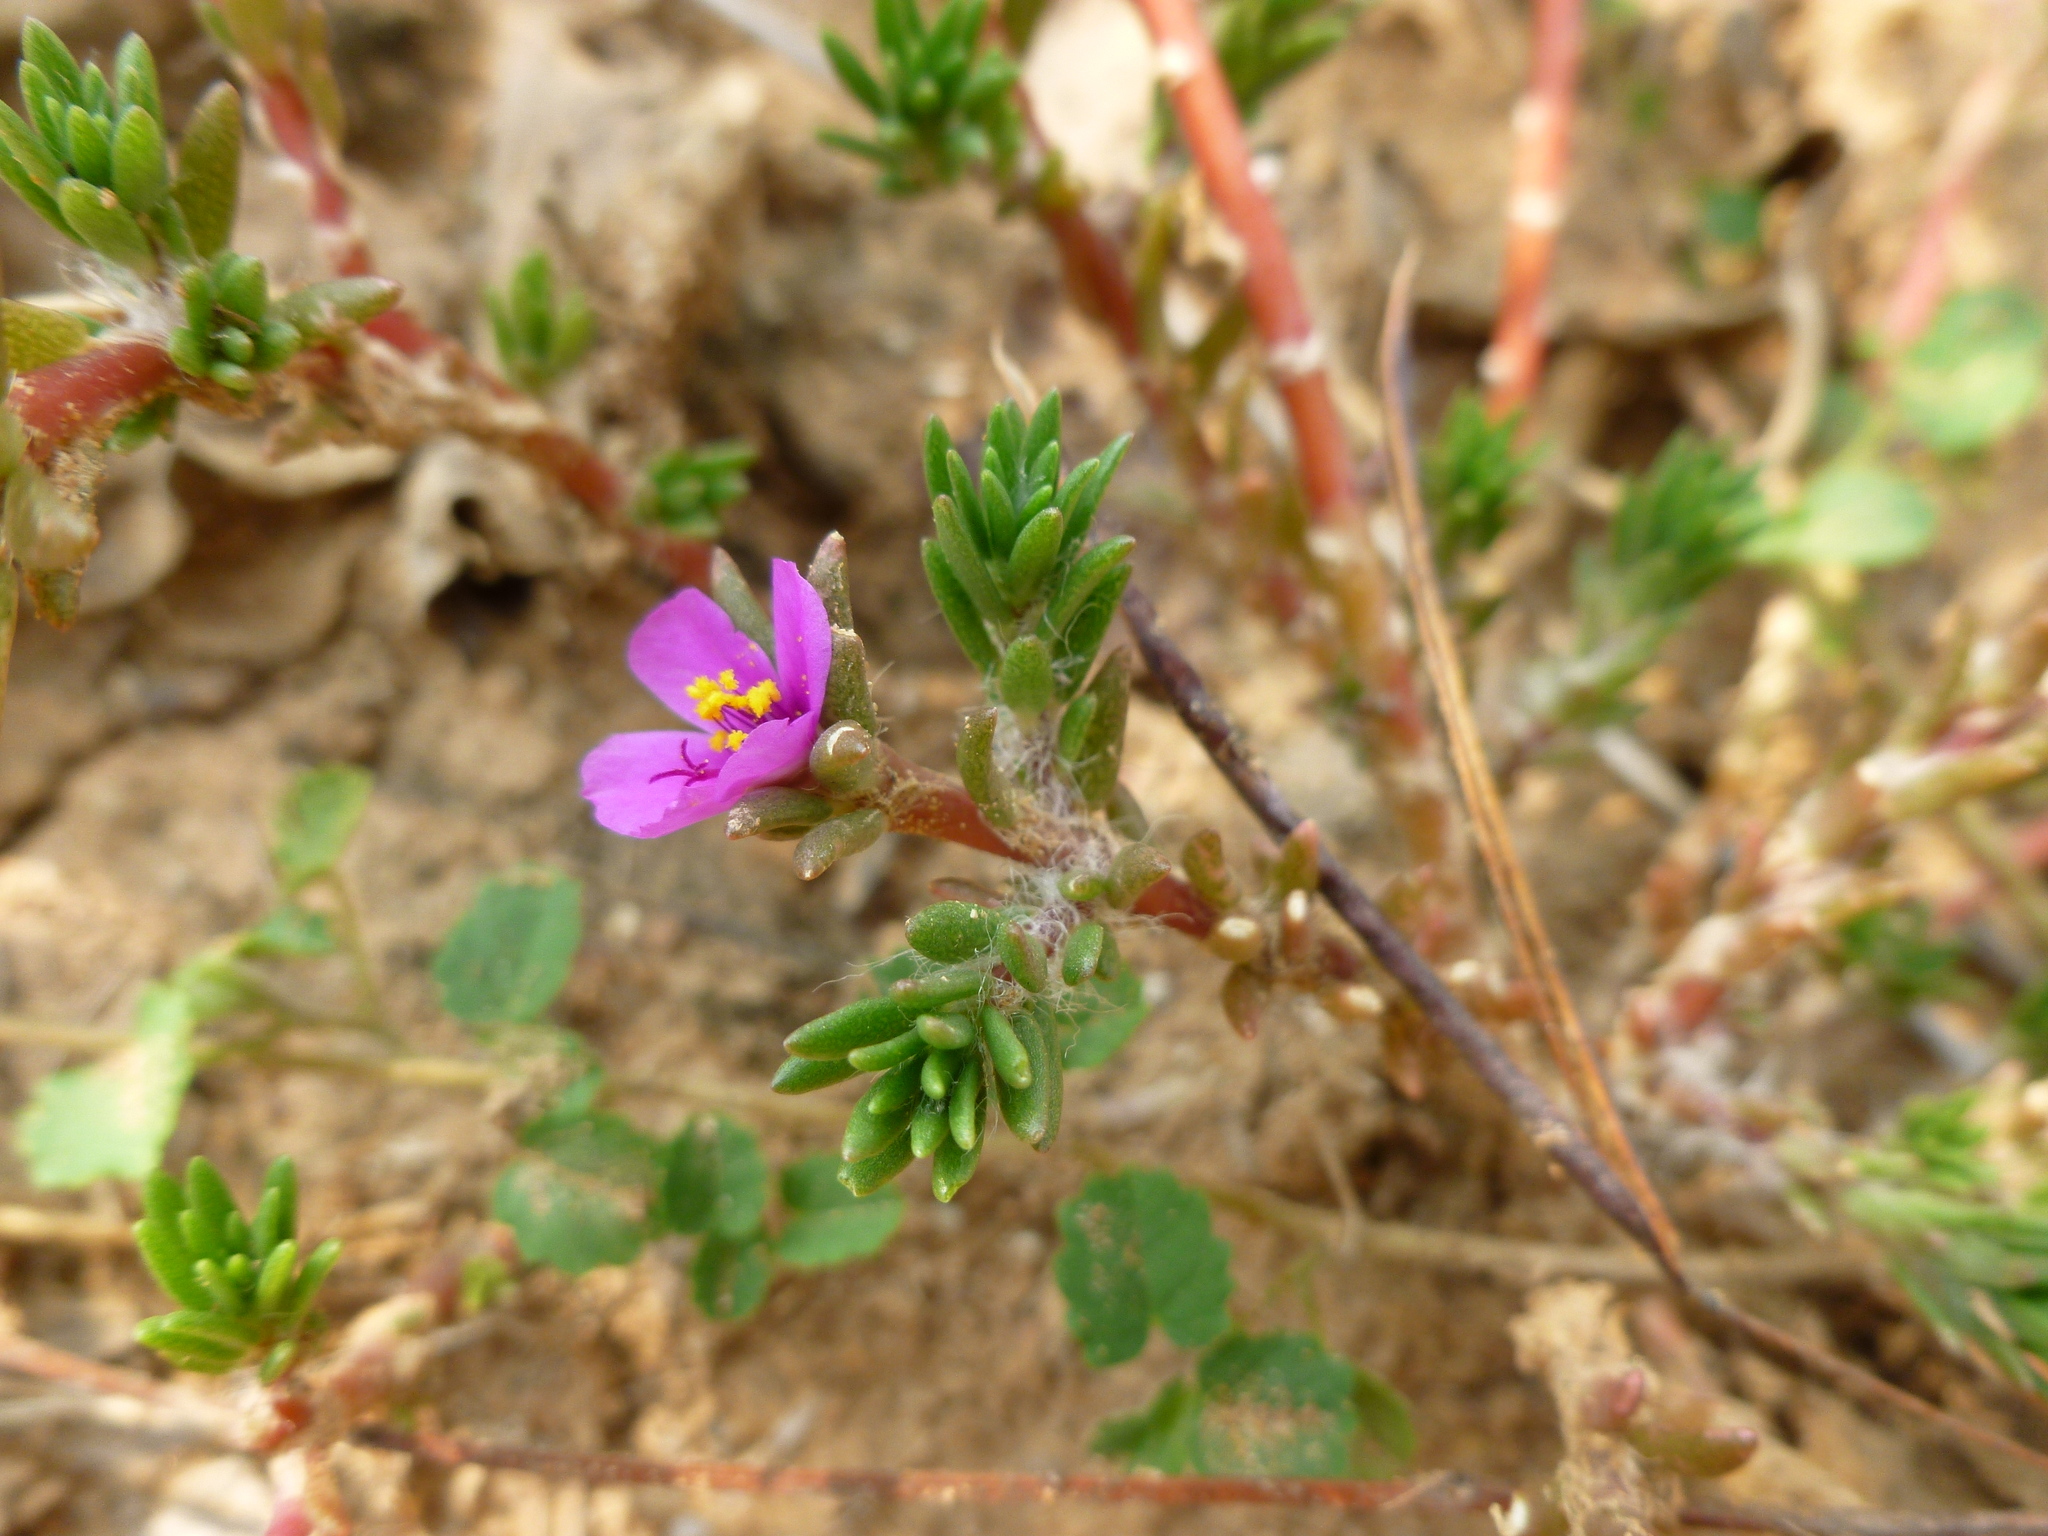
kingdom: Plantae
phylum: Tracheophyta
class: Magnoliopsida
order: Caryophyllales
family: Portulacaceae
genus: Portulaca
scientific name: Portulaca pilosa
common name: Kiss me quick
